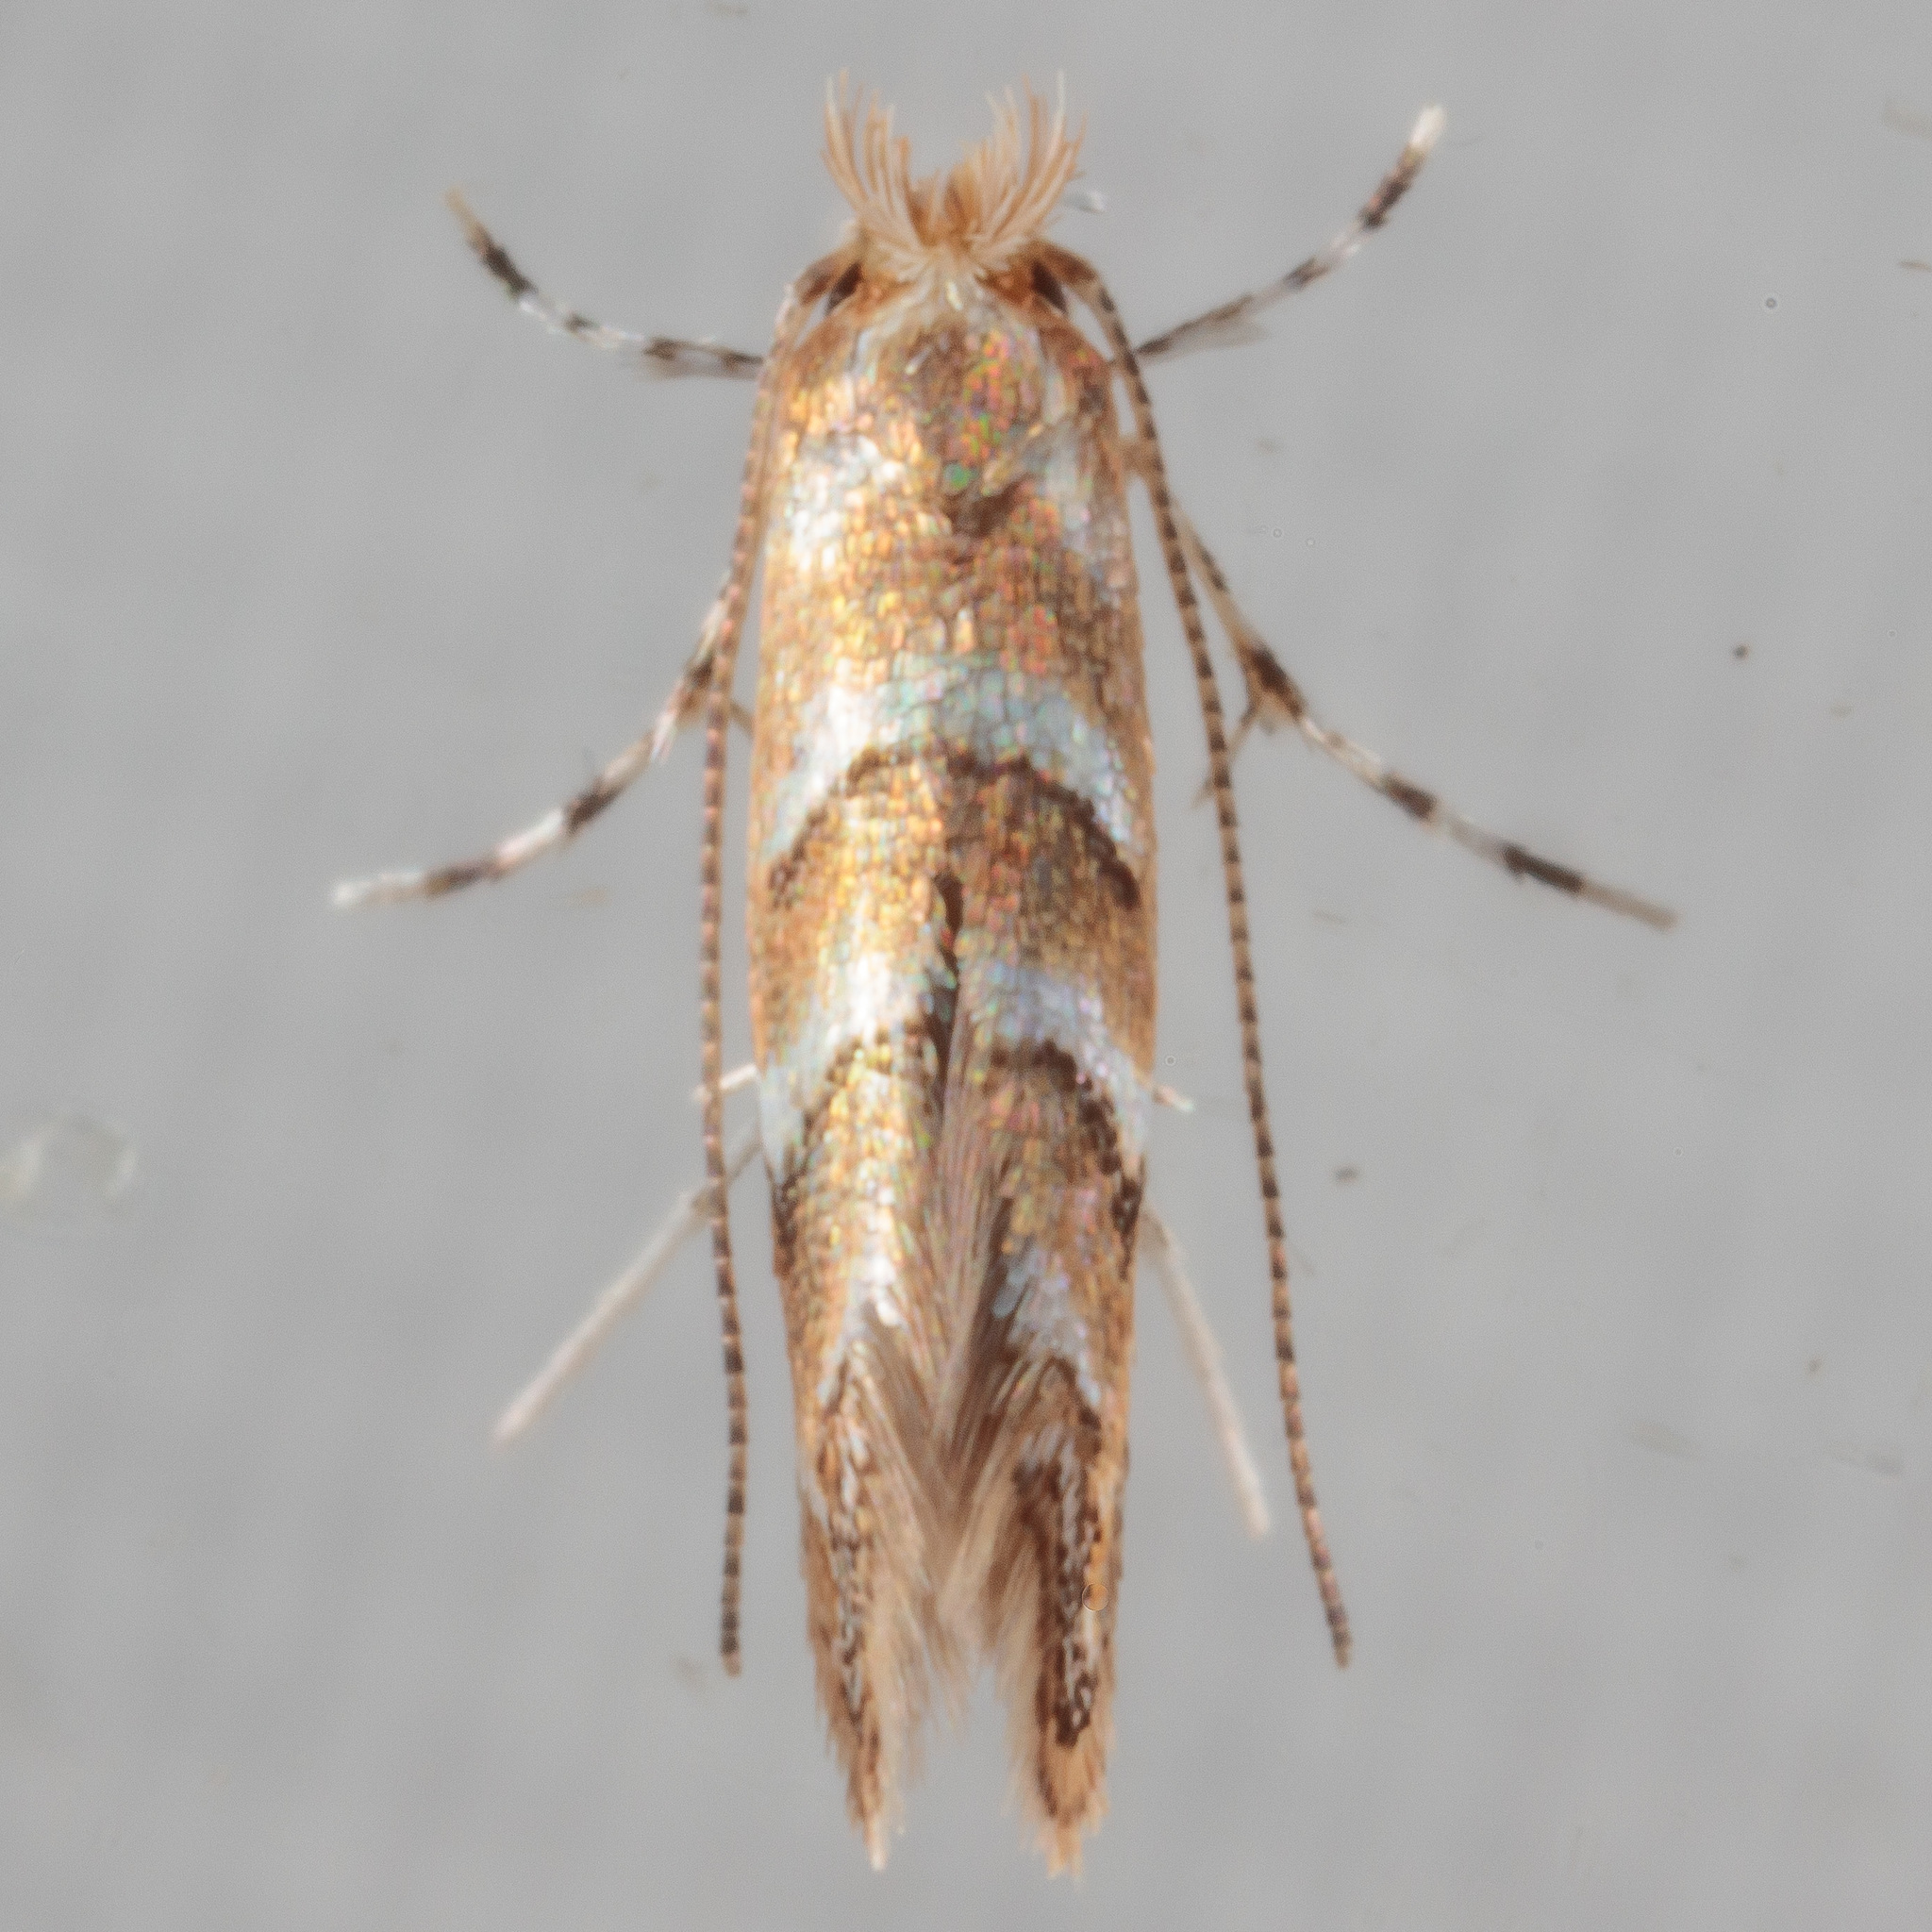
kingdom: Animalia
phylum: Arthropoda
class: Insecta
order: Lepidoptera
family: Gracillariidae
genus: Cameraria
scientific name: Cameraria caryaefoliella
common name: Pecan leafminer moth
